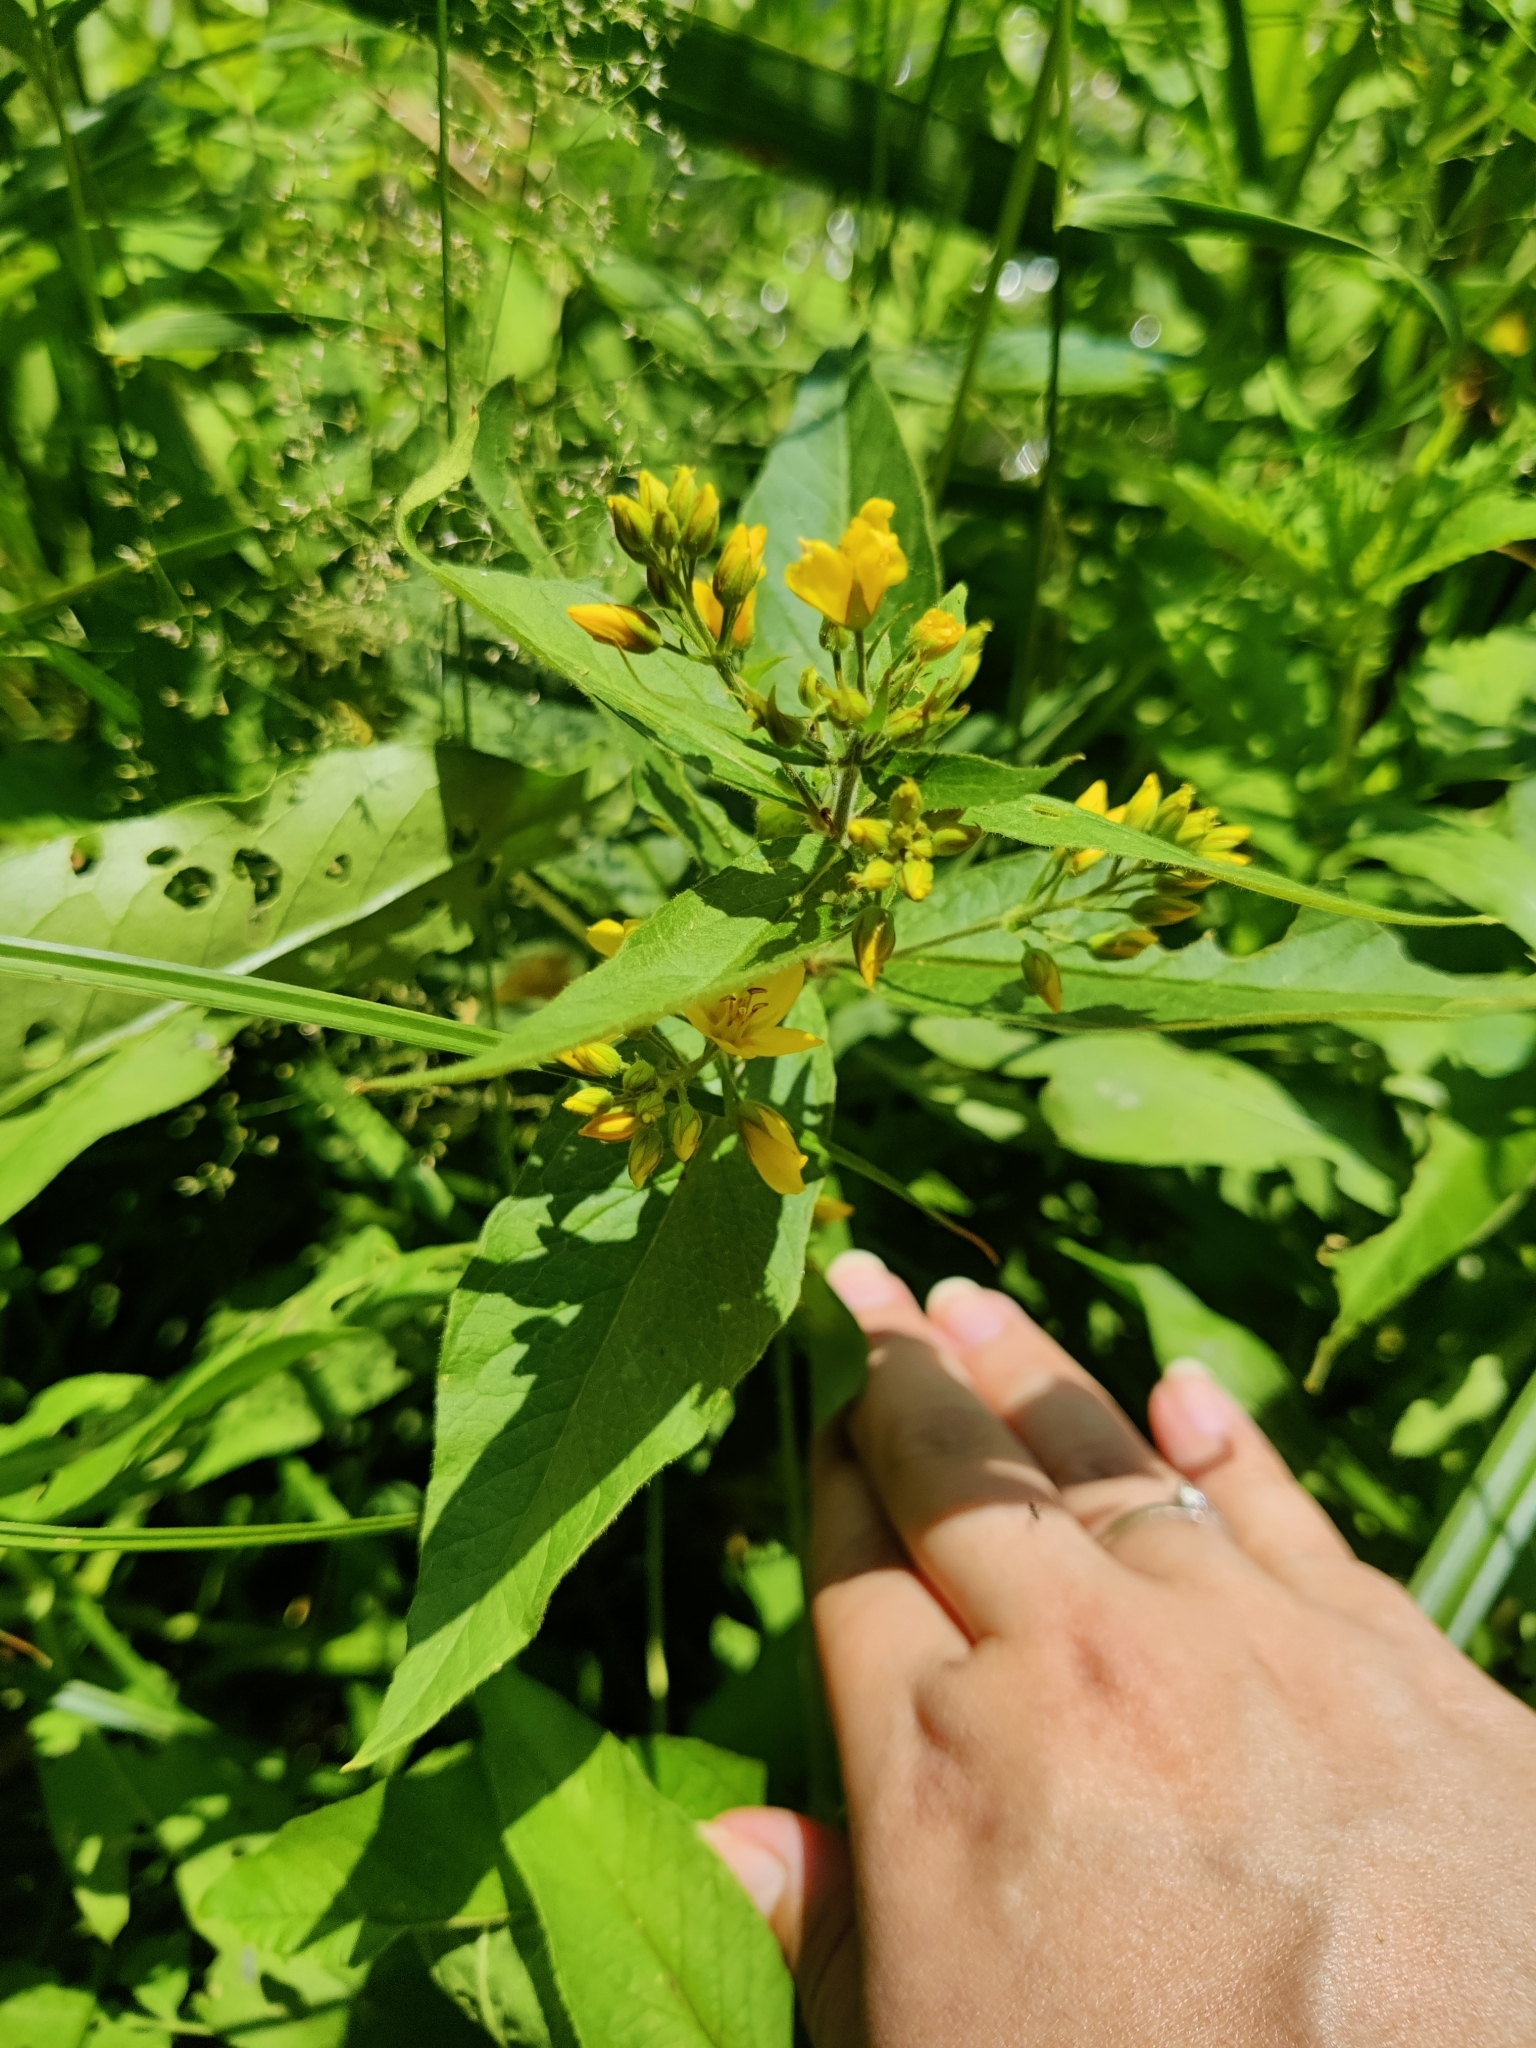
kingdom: Plantae
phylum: Tracheophyta
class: Magnoliopsida
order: Ericales
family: Primulaceae
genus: Lysimachia
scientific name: Lysimachia vulgaris
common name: Yellow loosestrife
